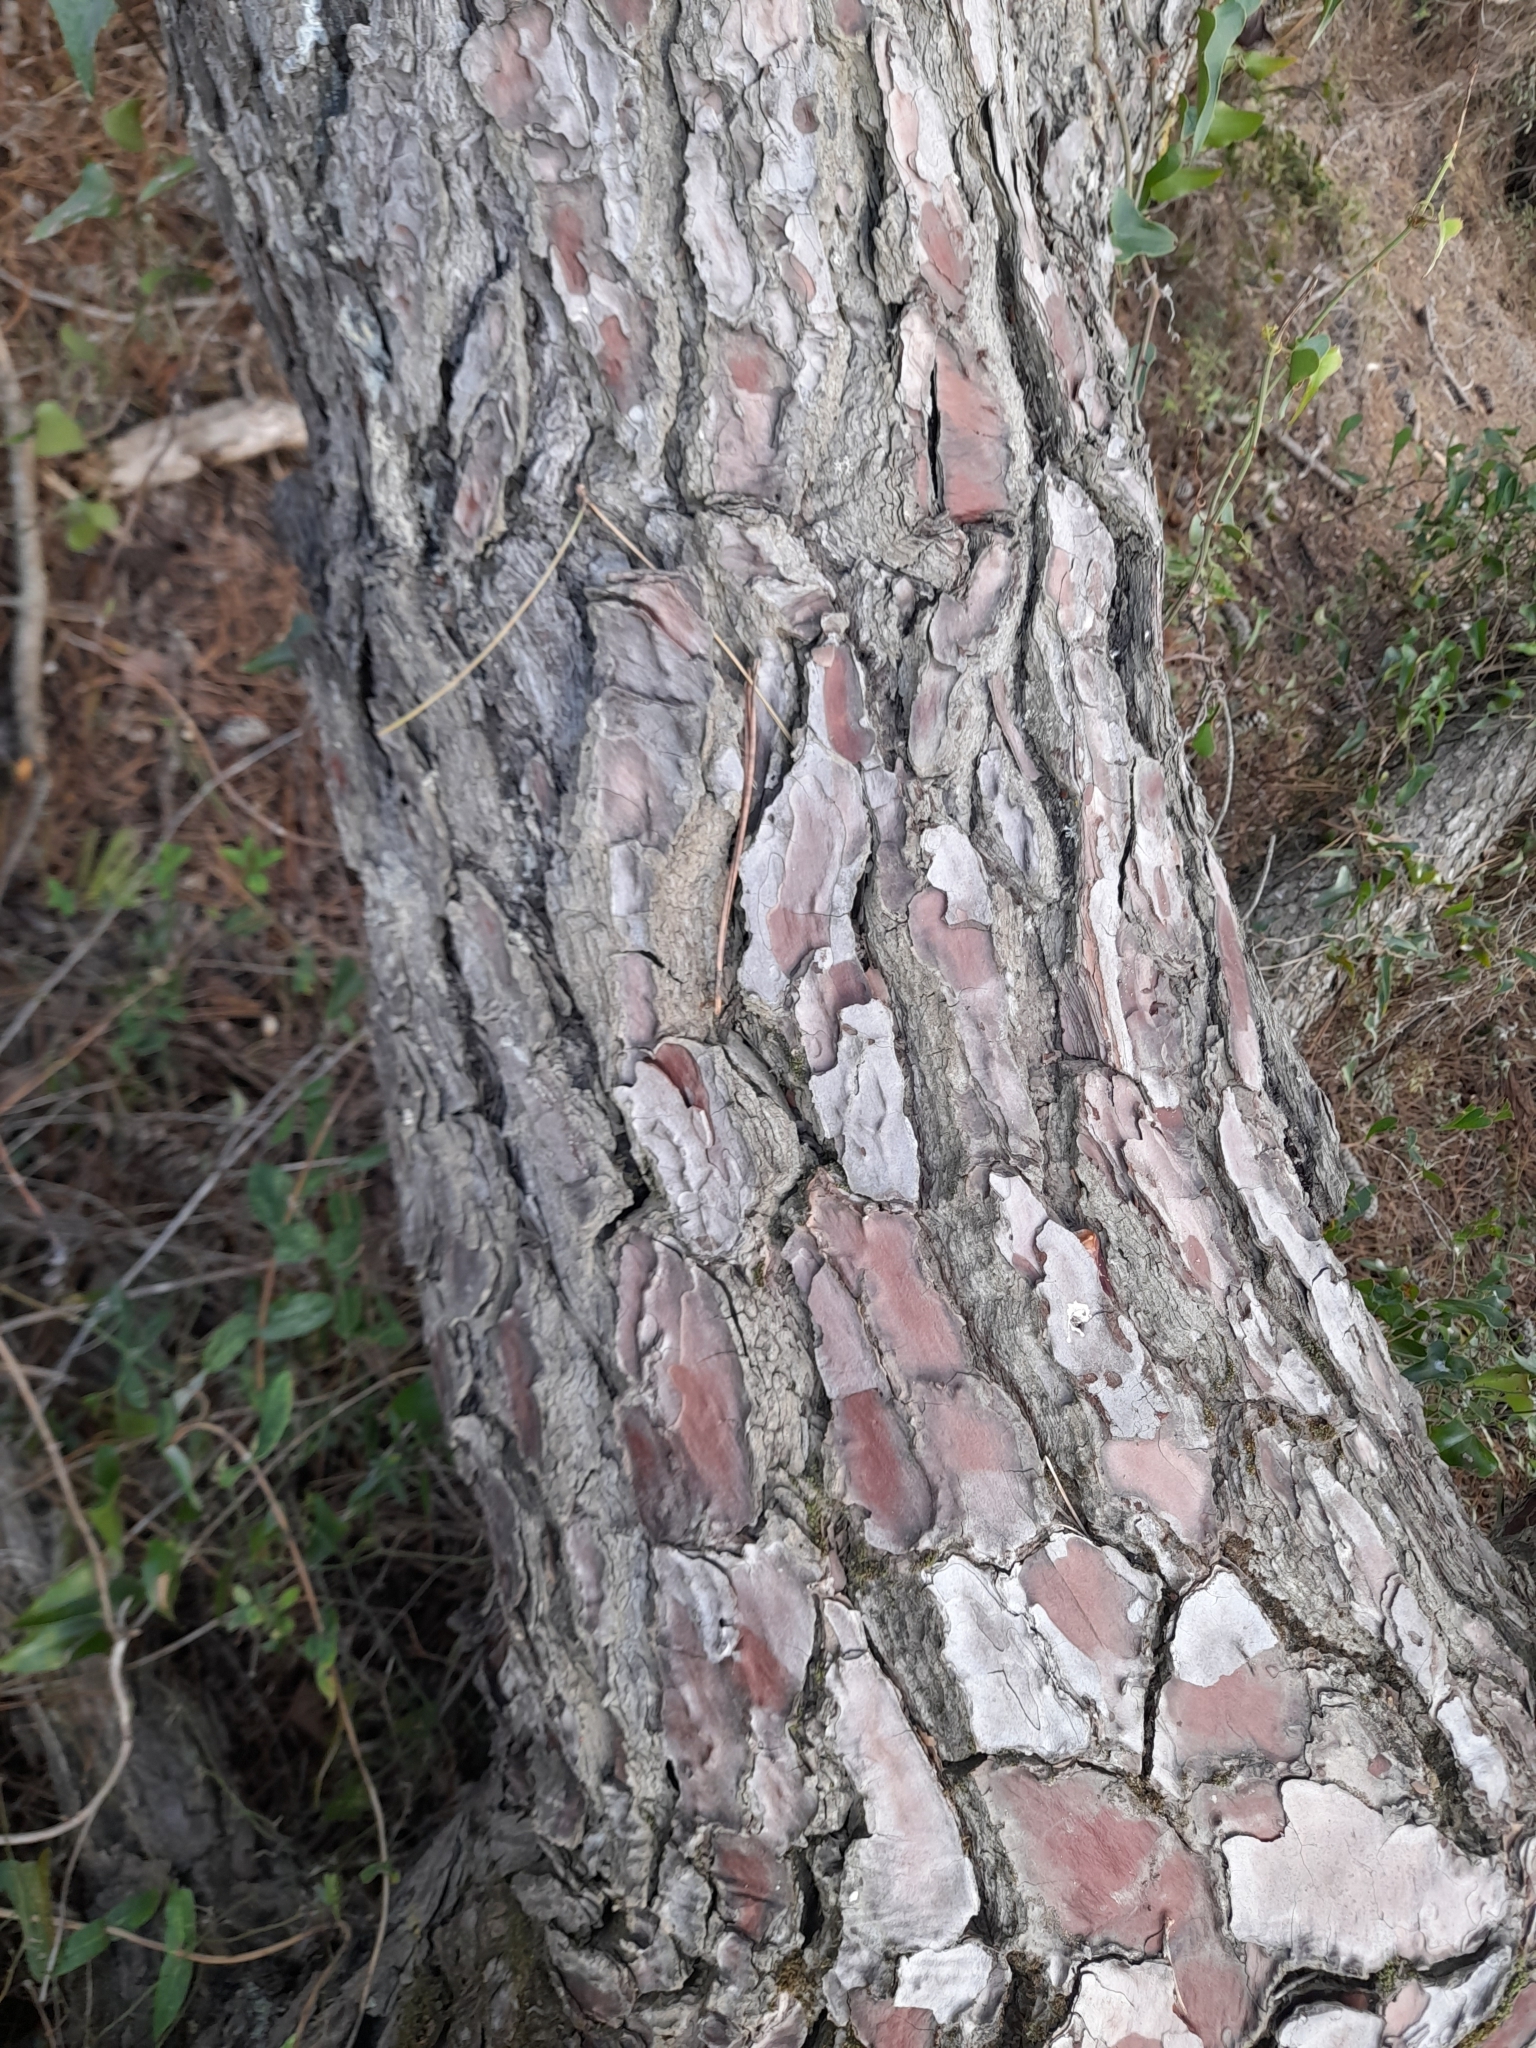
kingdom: Plantae
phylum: Tracheophyta
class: Pinopsida
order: Pinales
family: Pinaceae
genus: Pinus
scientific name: Pinus pinaster
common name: Maritime pine
